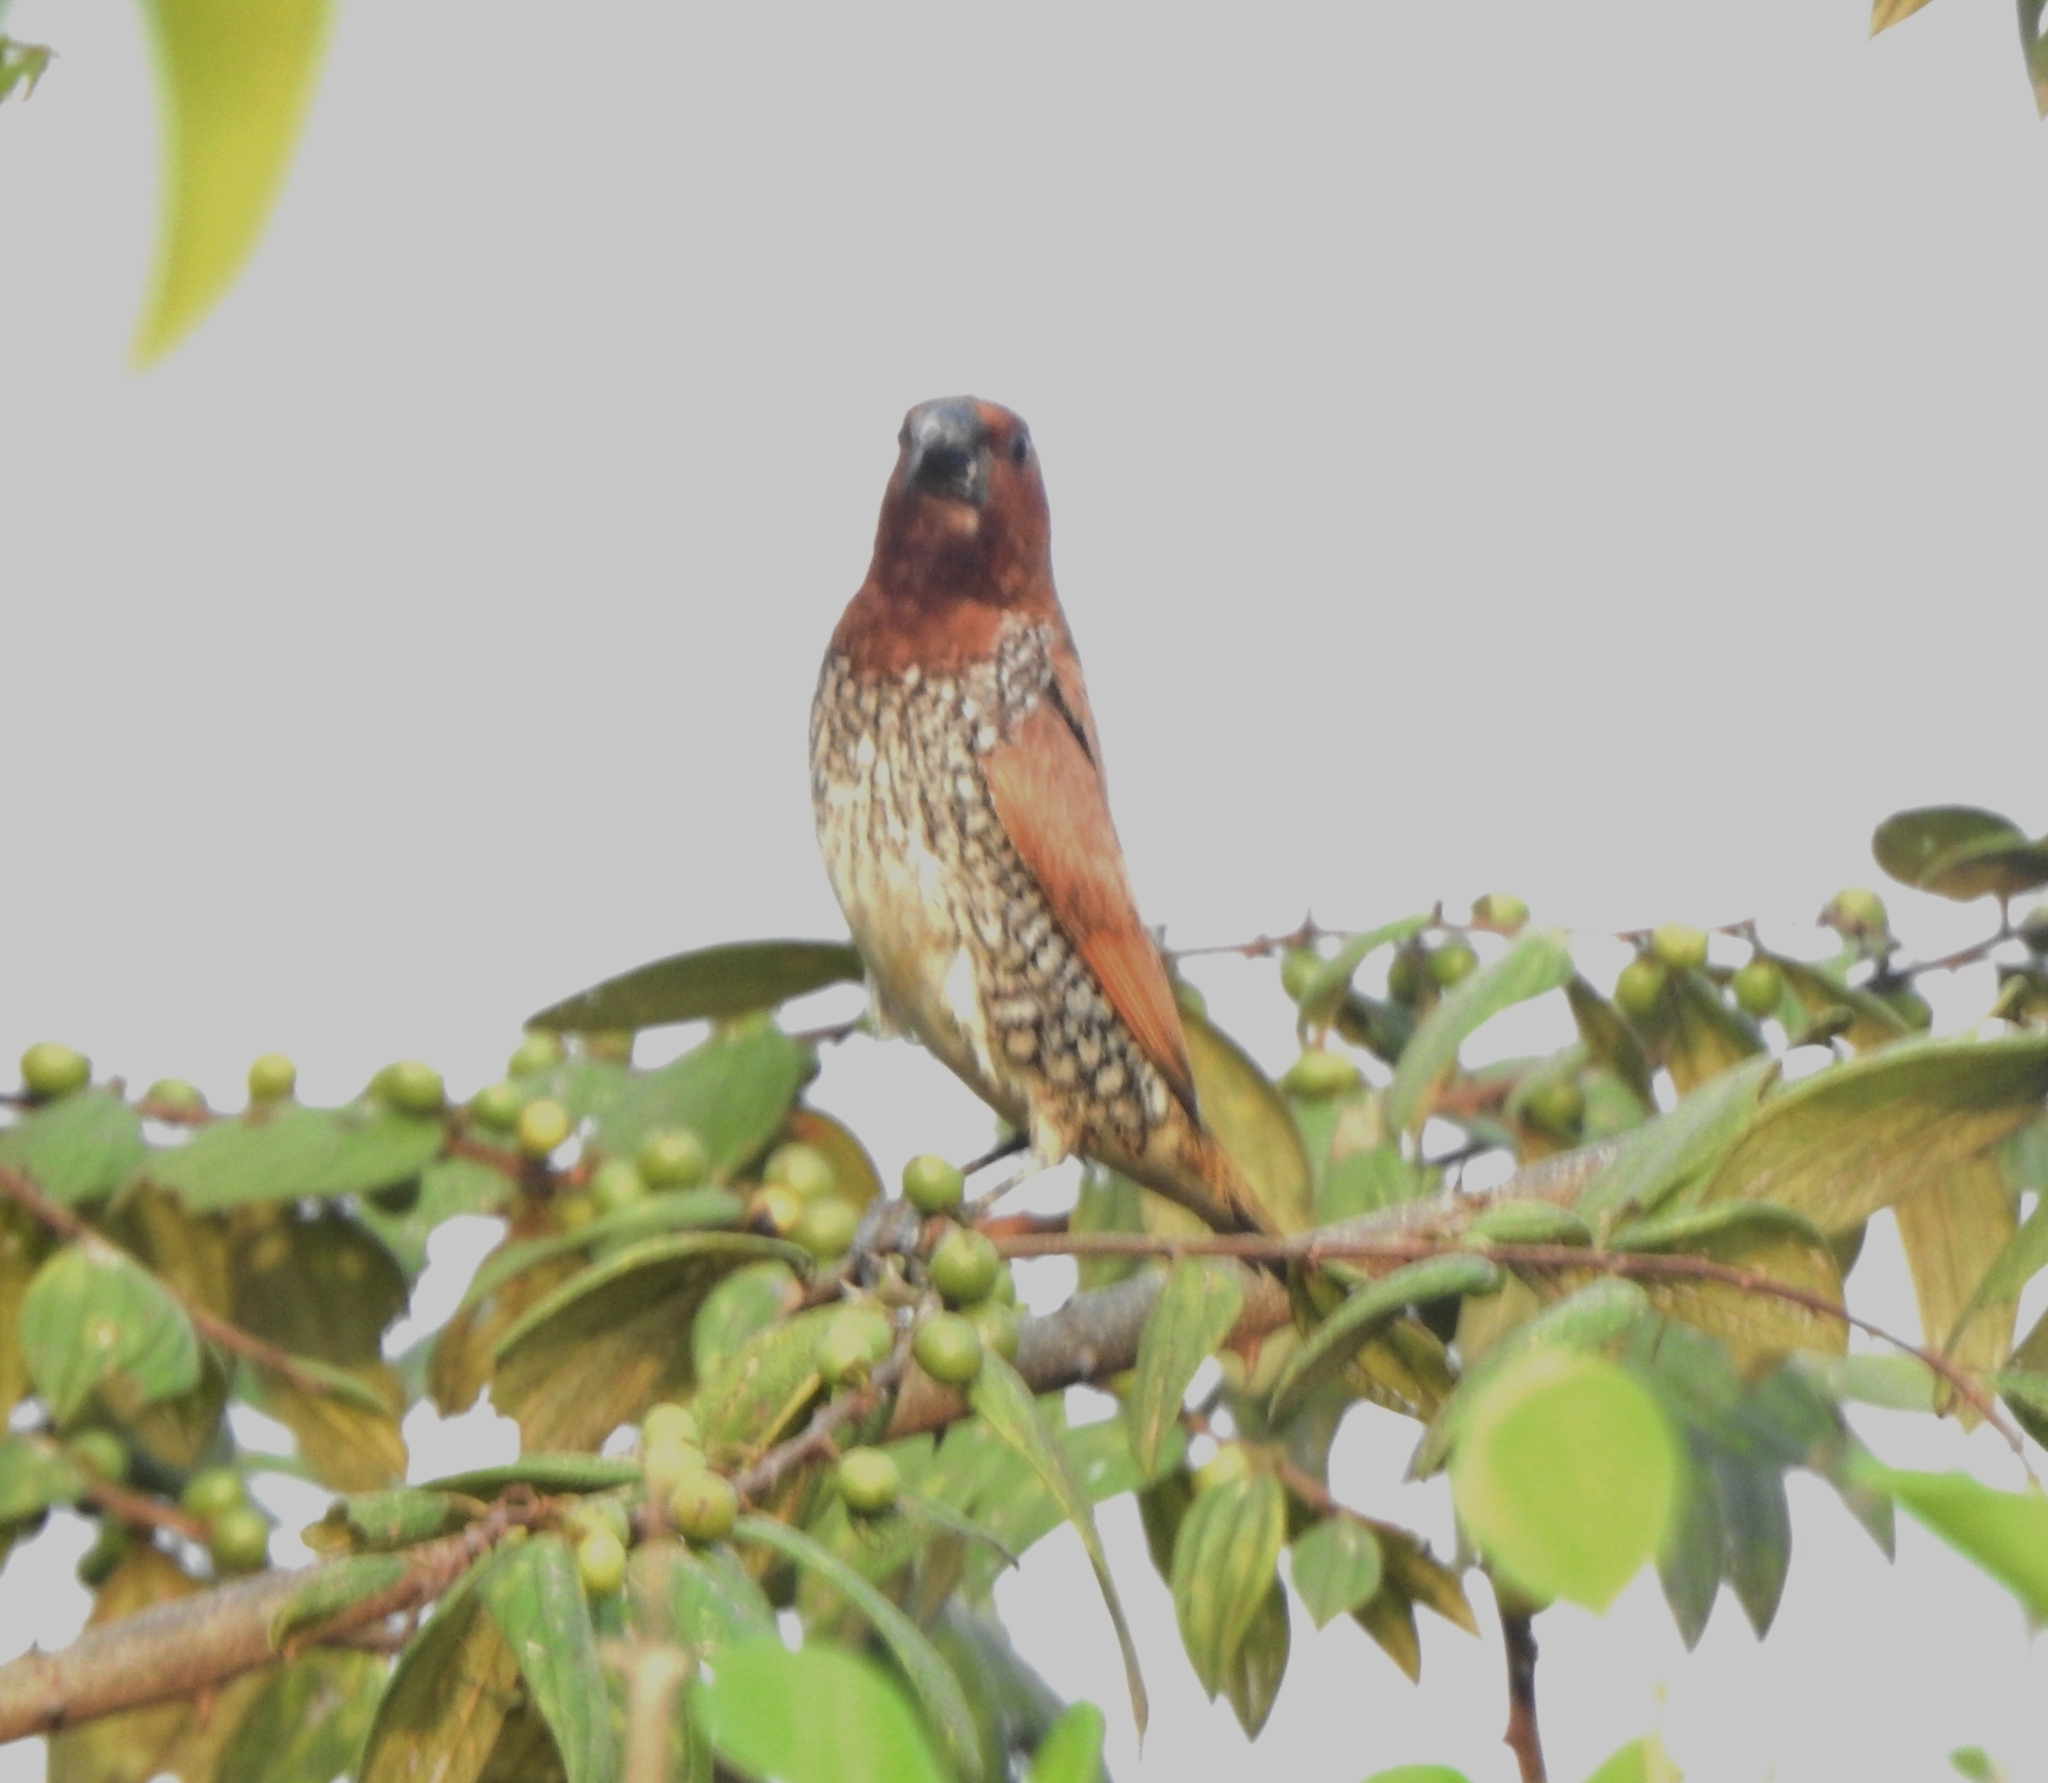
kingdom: Animalia
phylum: Chordata
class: Aves
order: Passeriformes
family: Estrildidae
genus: Lonchura
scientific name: Lonchura punctulata
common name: Scaly-breasted munia
